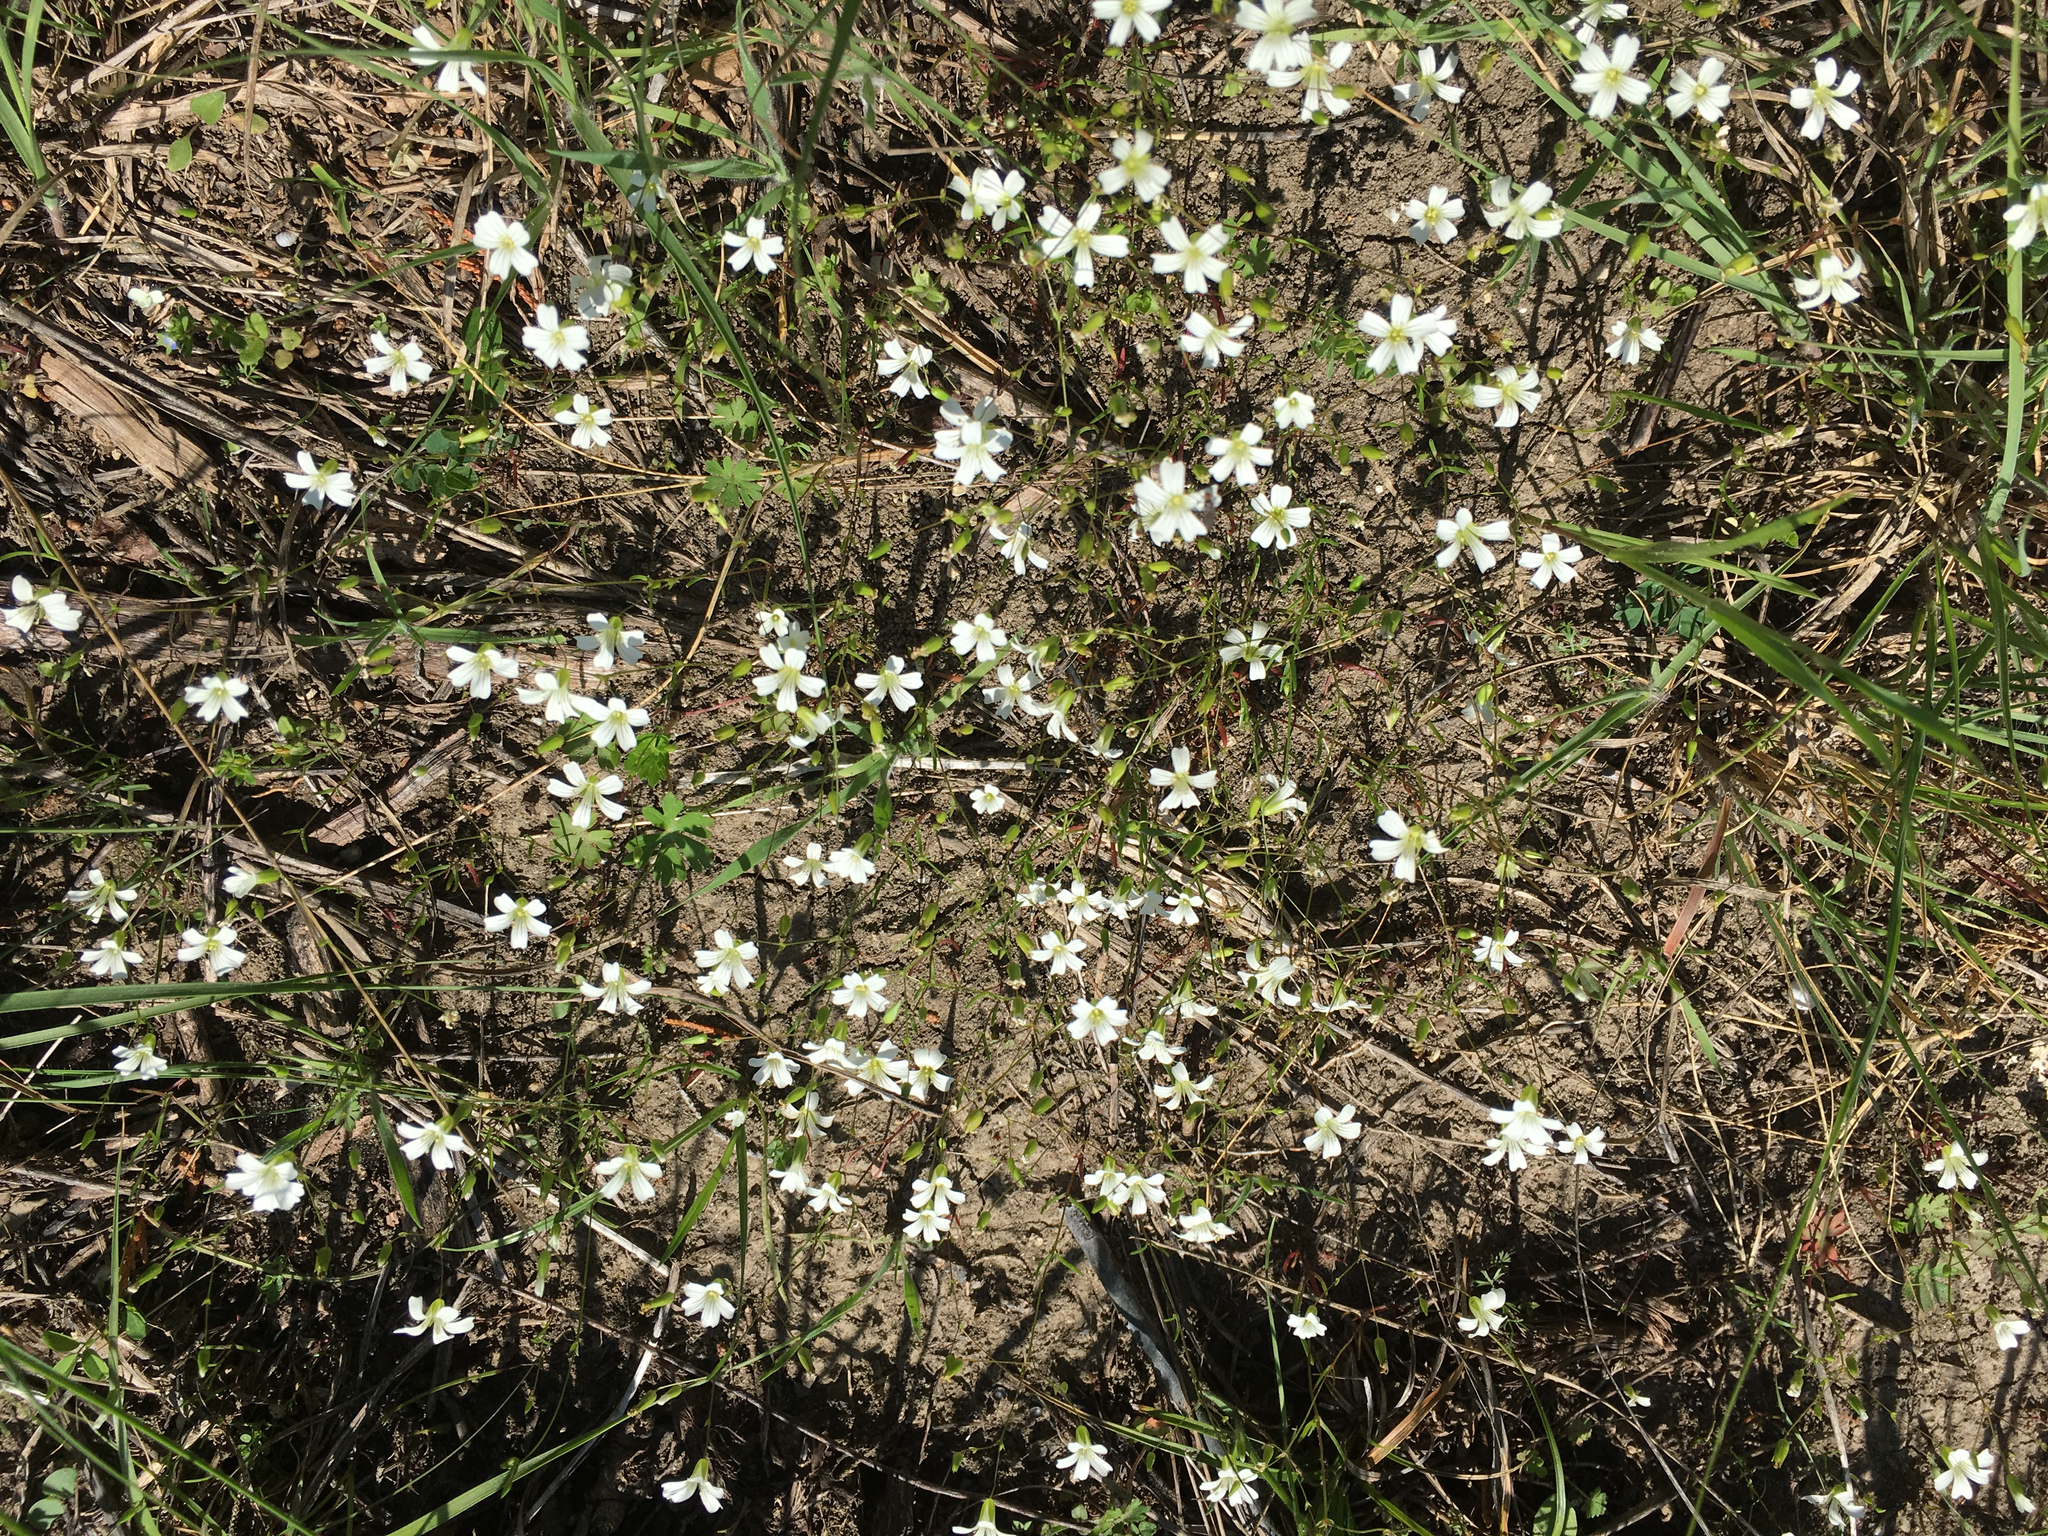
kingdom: Plantae
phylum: Tracheophyta
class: Magnoliopsida
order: Caryophyllales
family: Caryophyllaceae
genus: Mononeuria
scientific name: Mononeuria patula
